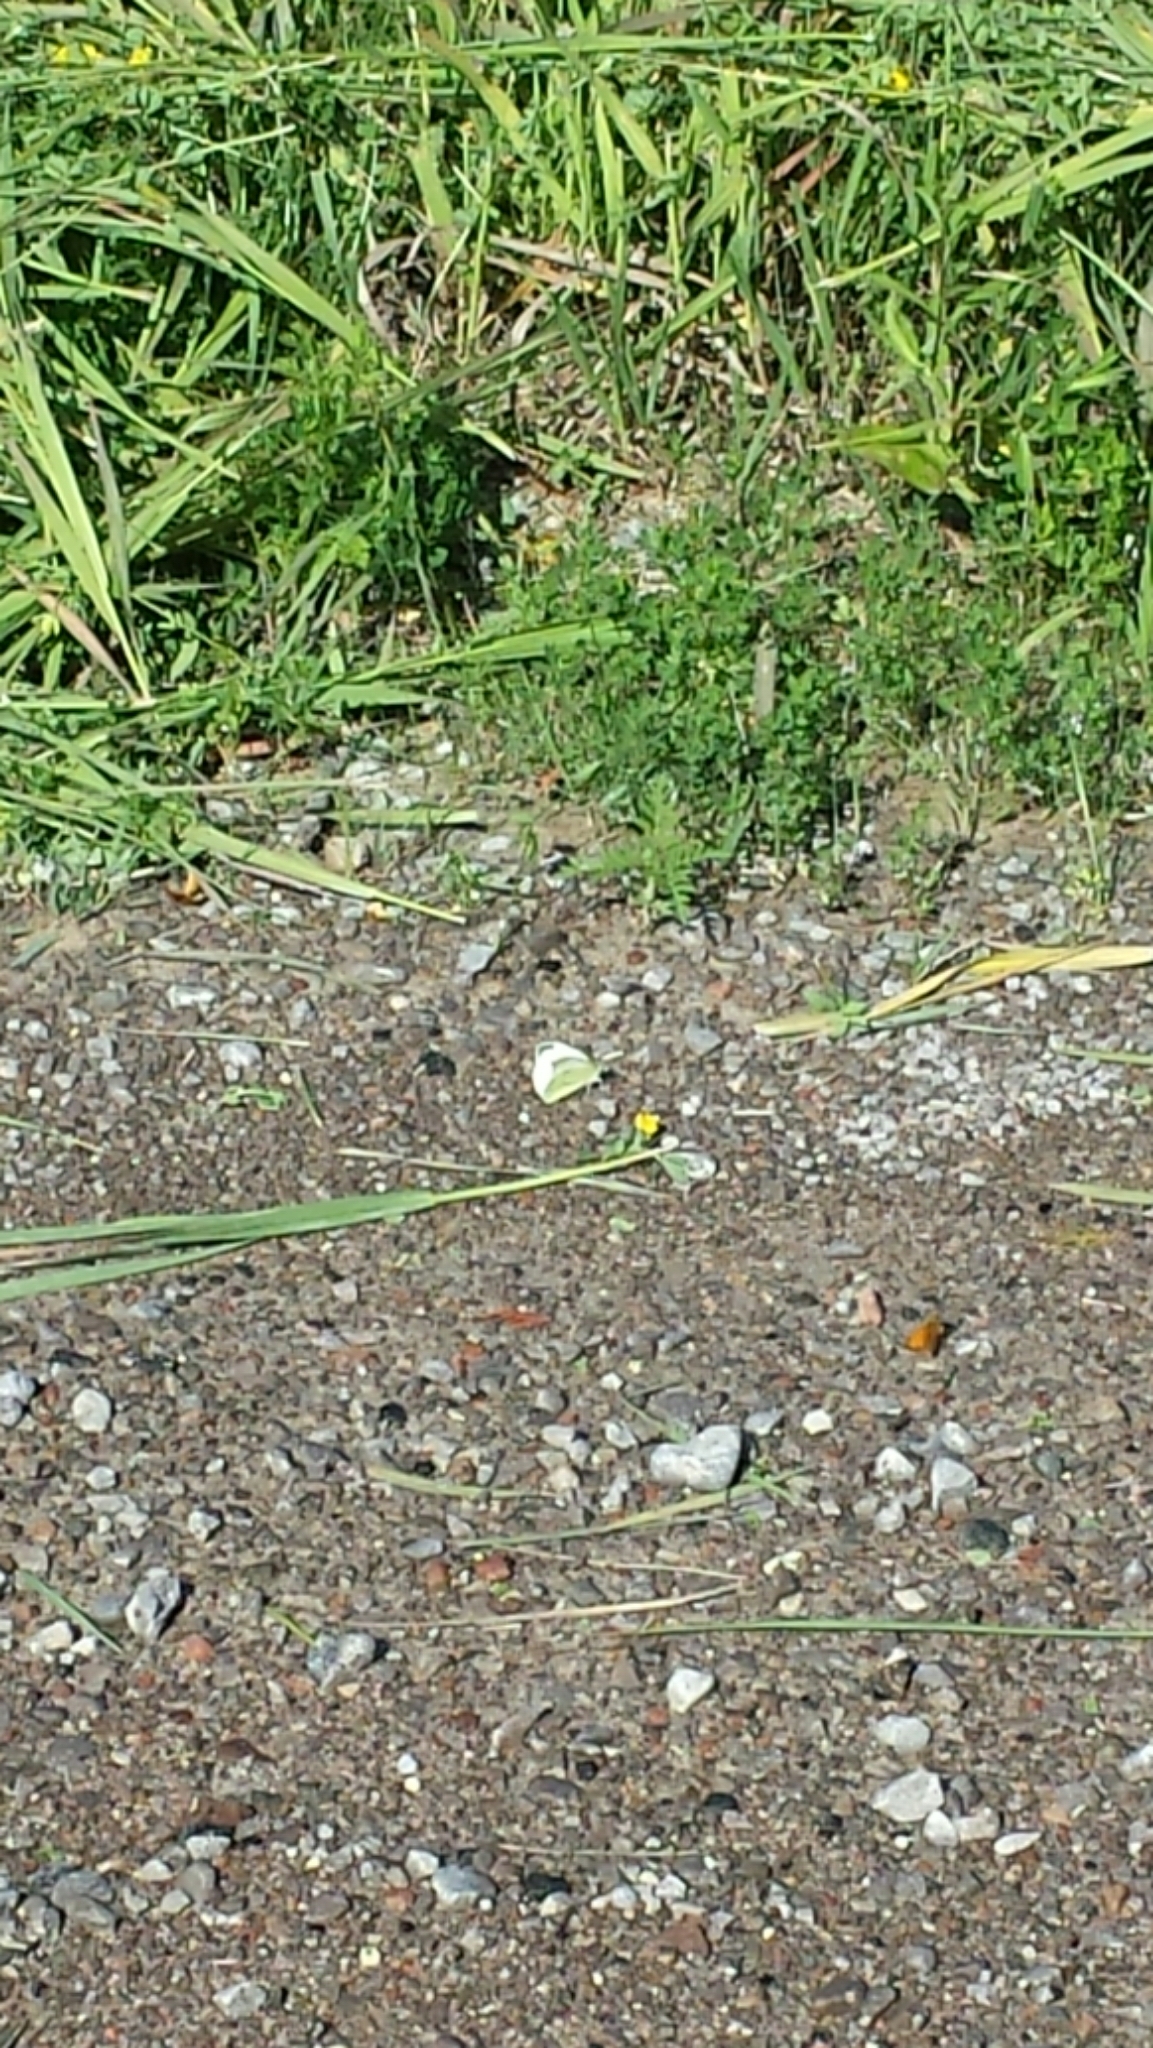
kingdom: Animalia
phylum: Arthropoda
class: Insecta
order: Lepidoptera
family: Pieridae
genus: Pieris
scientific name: Pieris rapae
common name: Small white
